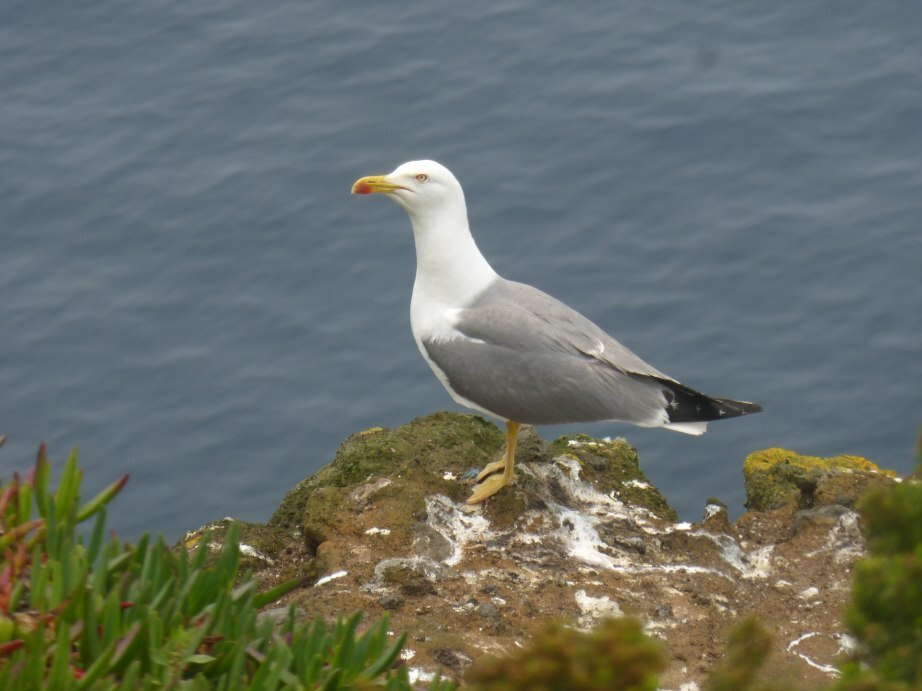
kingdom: Animalia
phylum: Chordata
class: Aves
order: Charadriiformes
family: Laridae
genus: Larus
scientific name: Larus michahellis
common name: Yellow-legged gull
